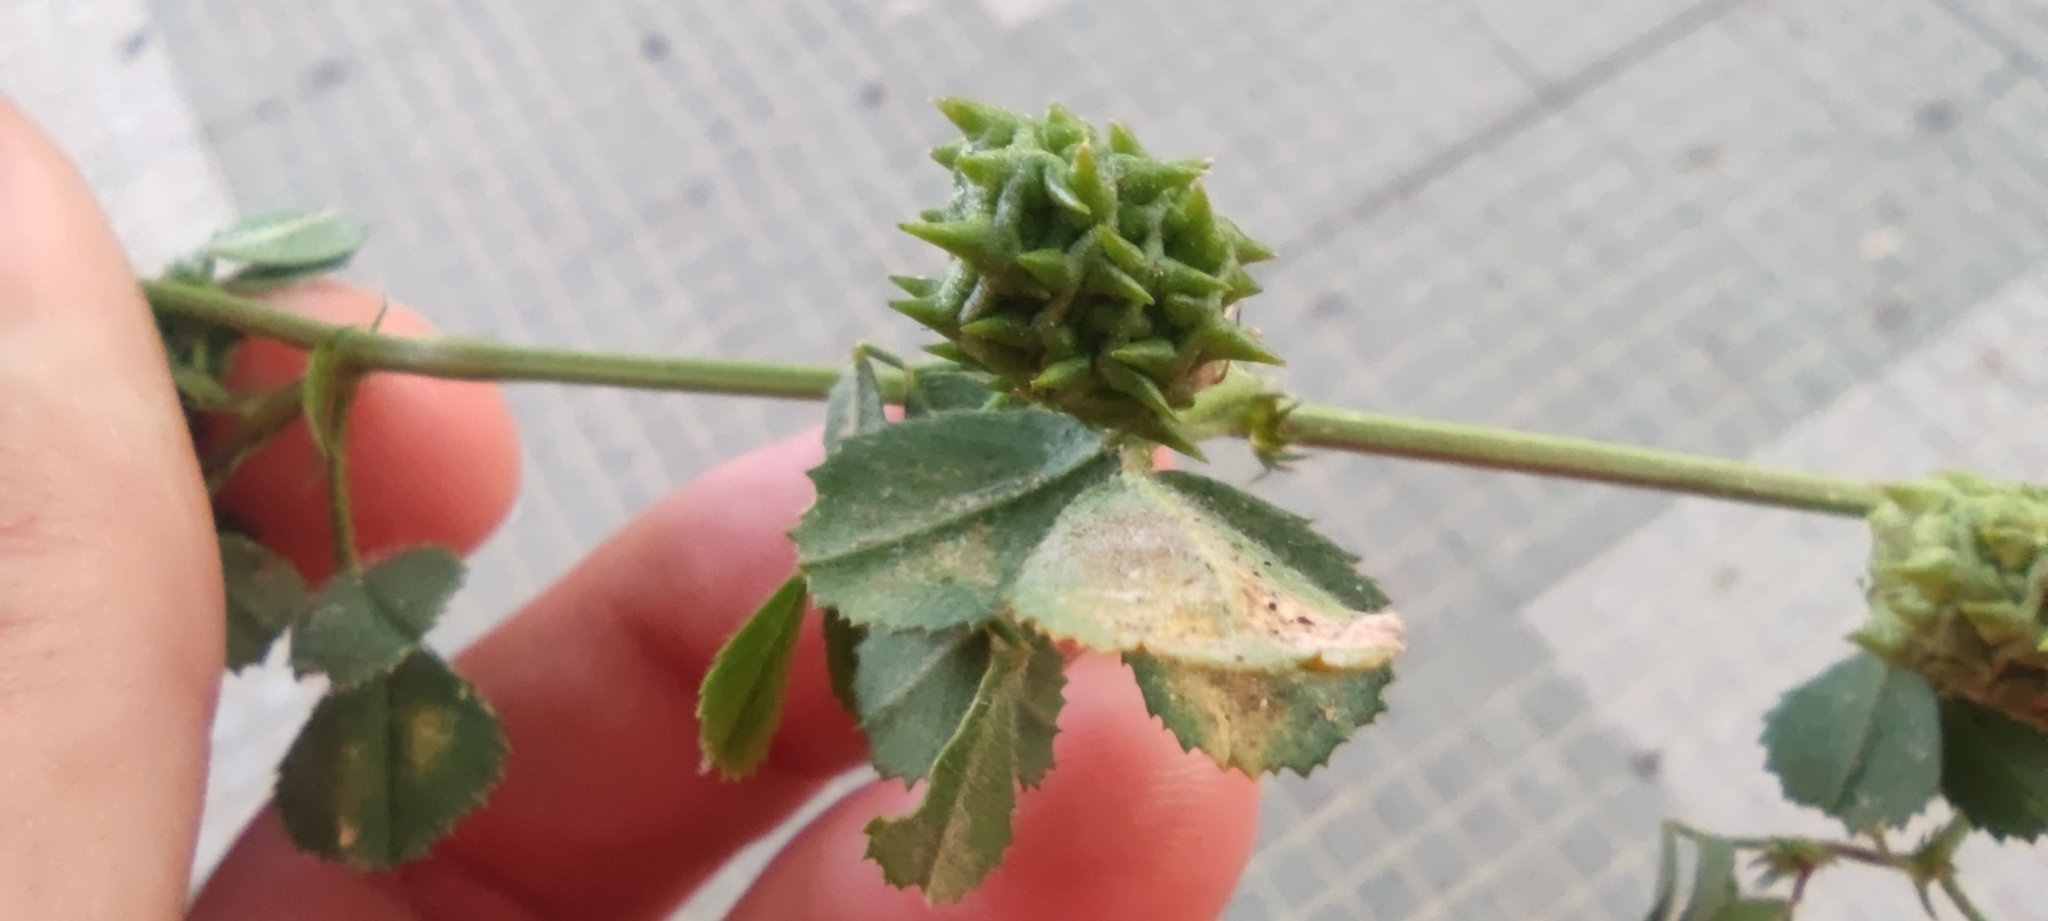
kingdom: Plantae
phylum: Tracheophyta
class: Magnoliopsida
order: Fabales
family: Fabaceae
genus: Medicago
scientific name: Medicago truncatula
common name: Strong-spined medick
